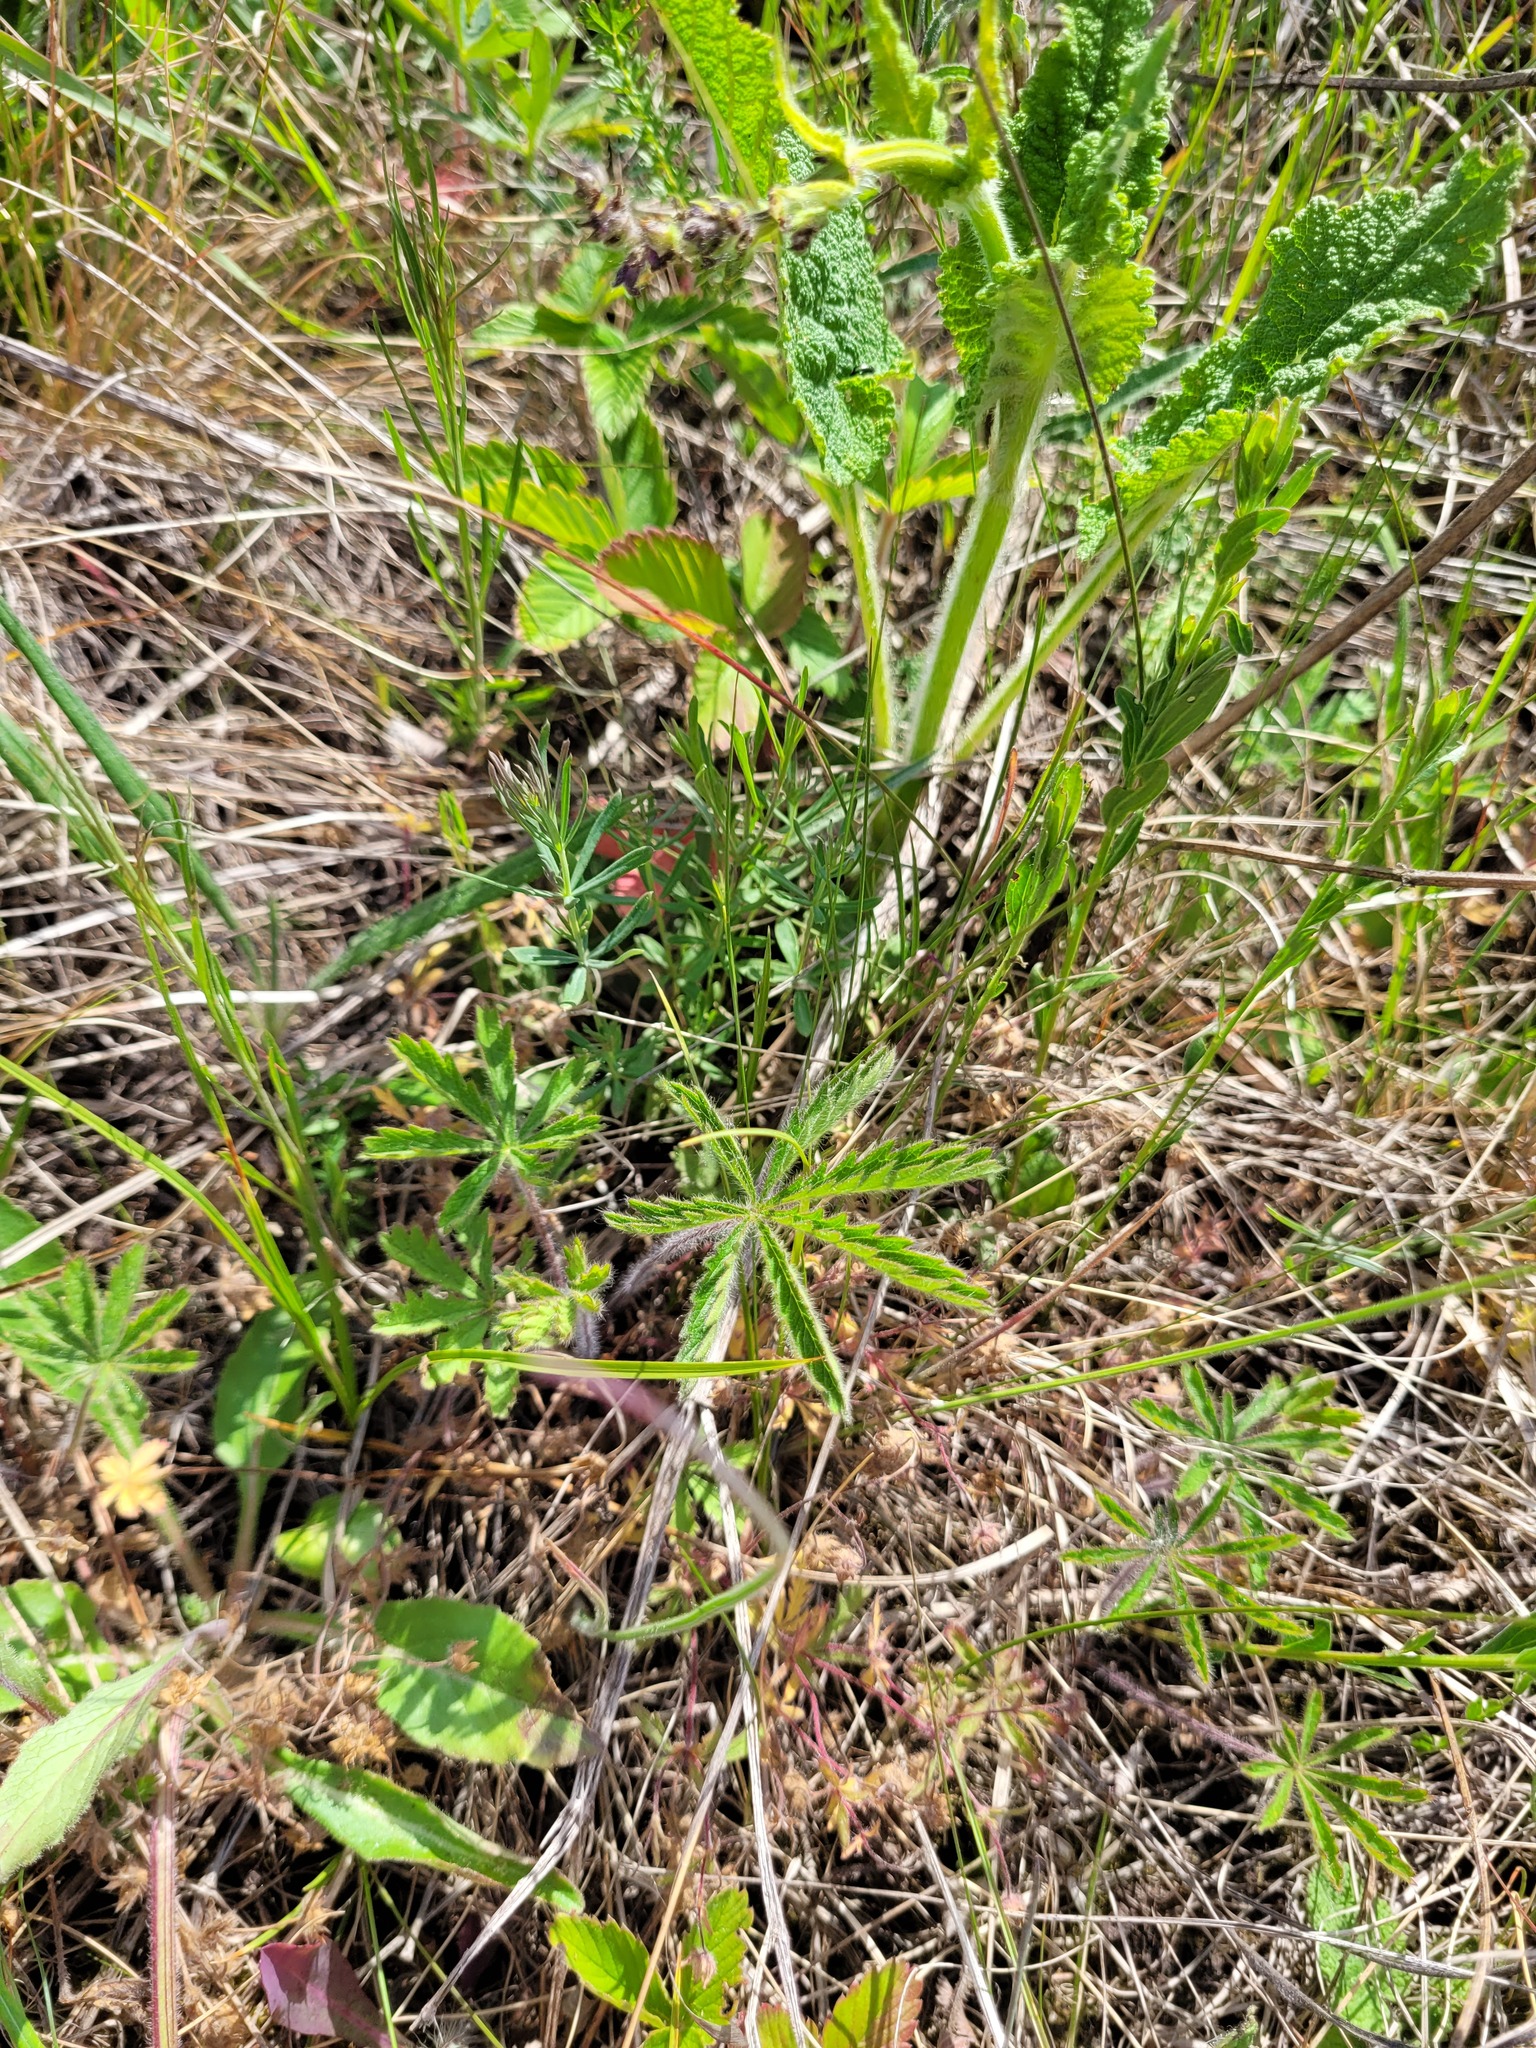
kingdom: Plantae
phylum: Tracheophyta
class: Magnoliopsida
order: Rosales
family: Rosaceae
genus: Potentilla
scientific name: Potentilla humifusa
